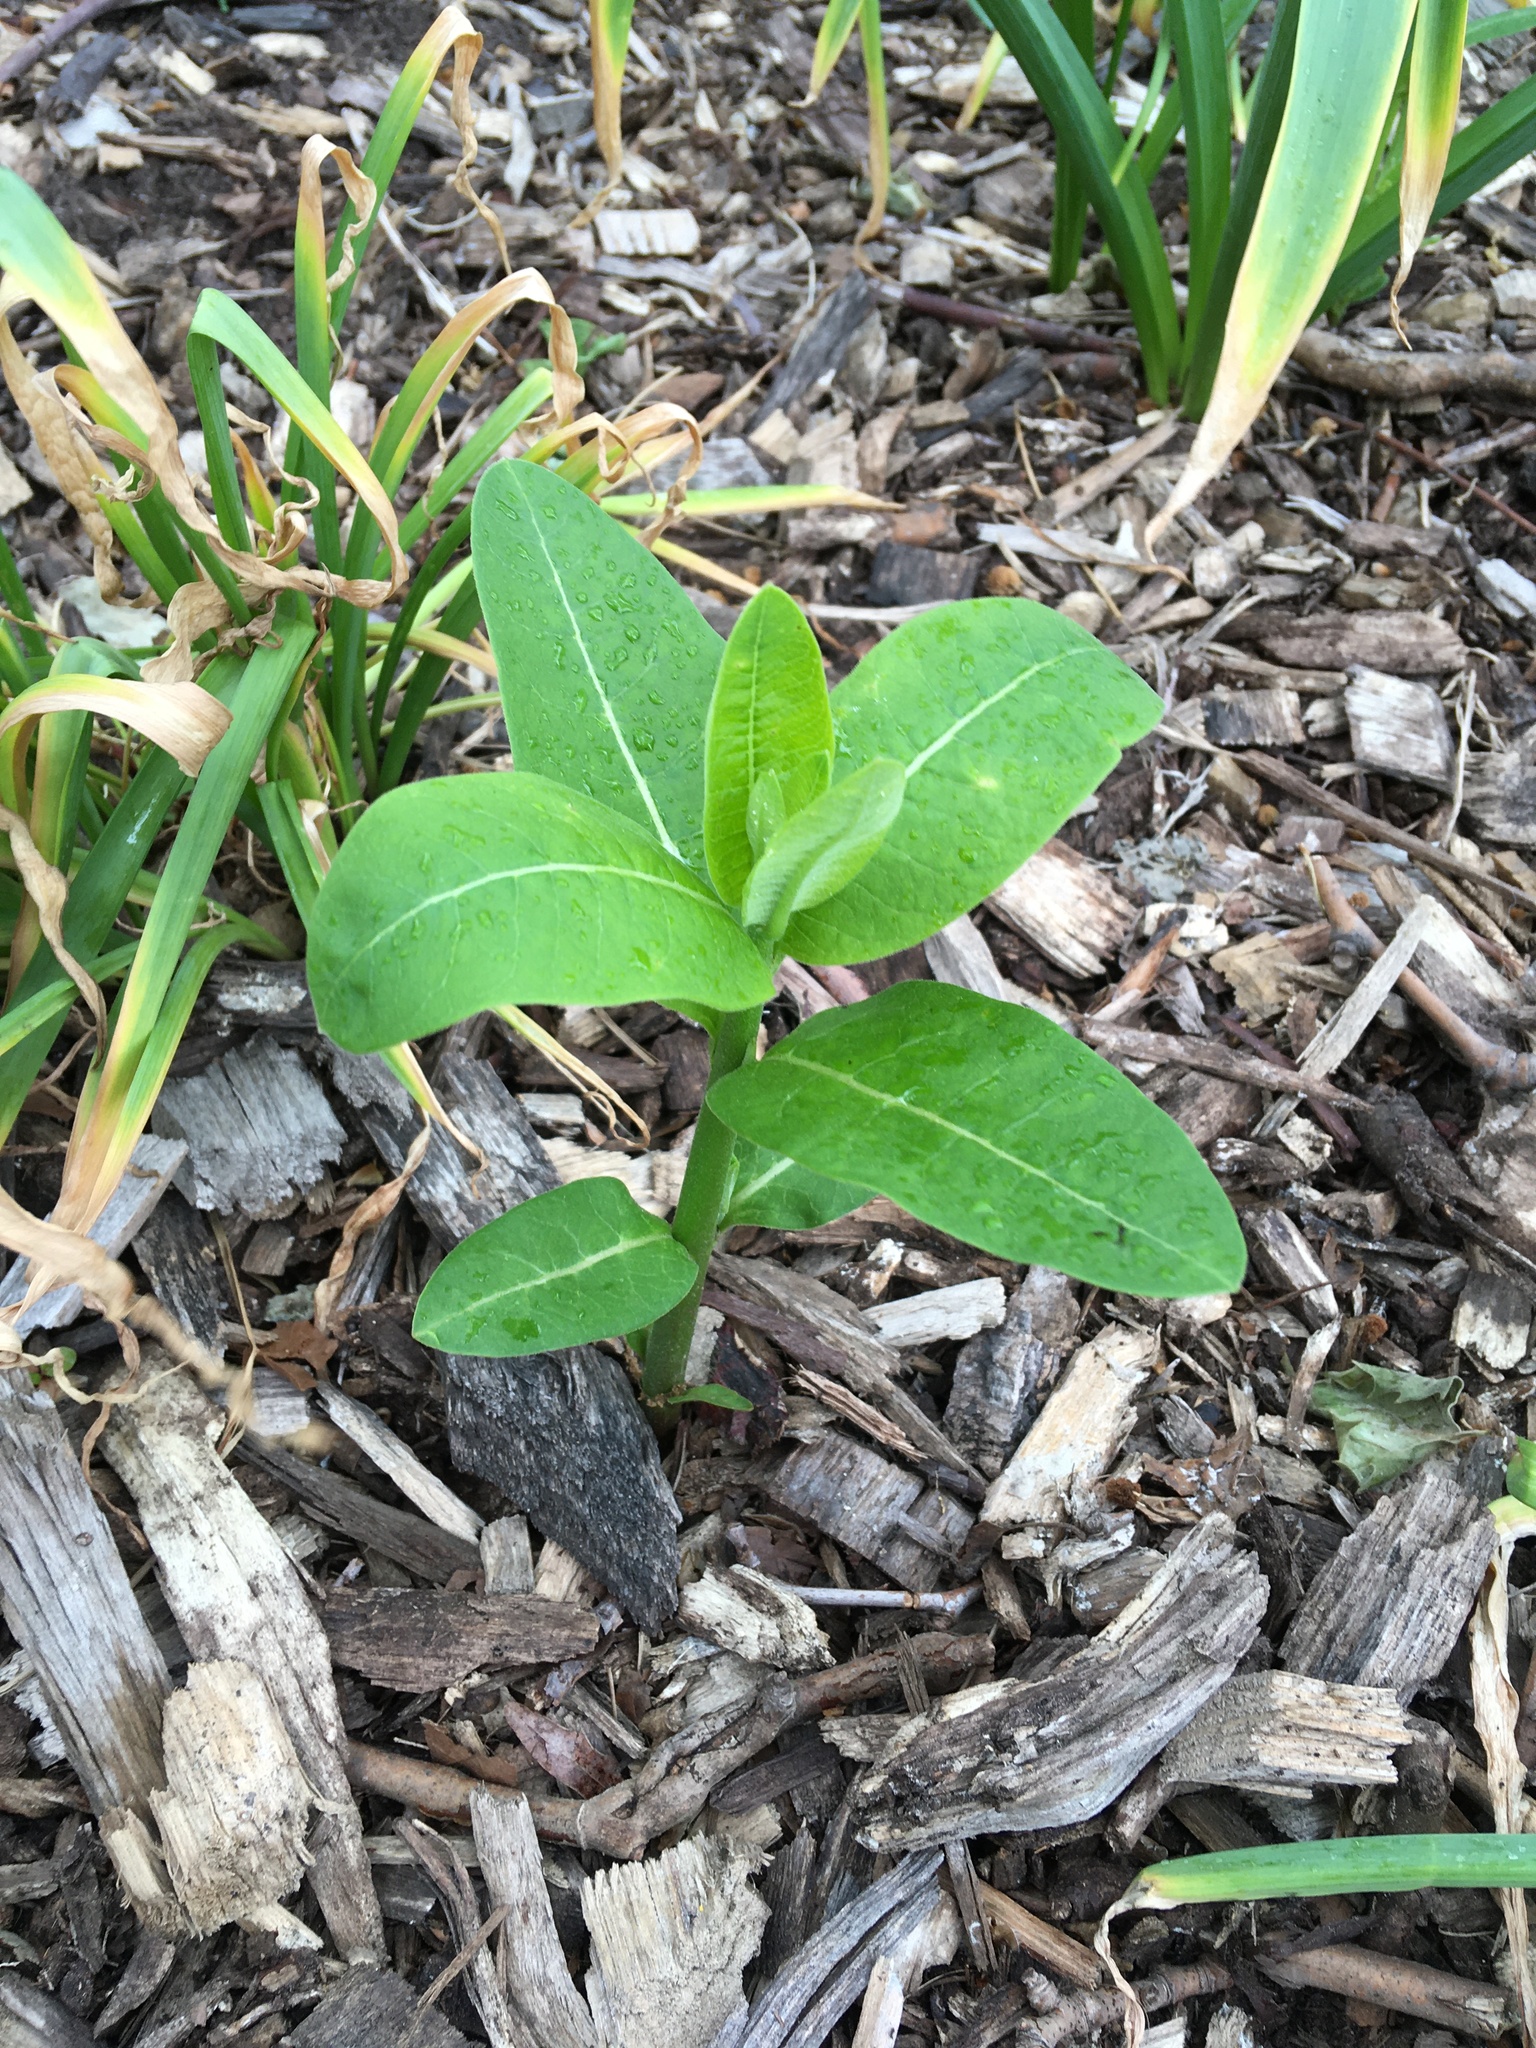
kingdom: Plantae
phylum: Tracheophyta
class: Magnoliopsida
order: Gentianales
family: Apocynaceae
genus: Asclepias
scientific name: Asclepias syriaca
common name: Common milkweed
